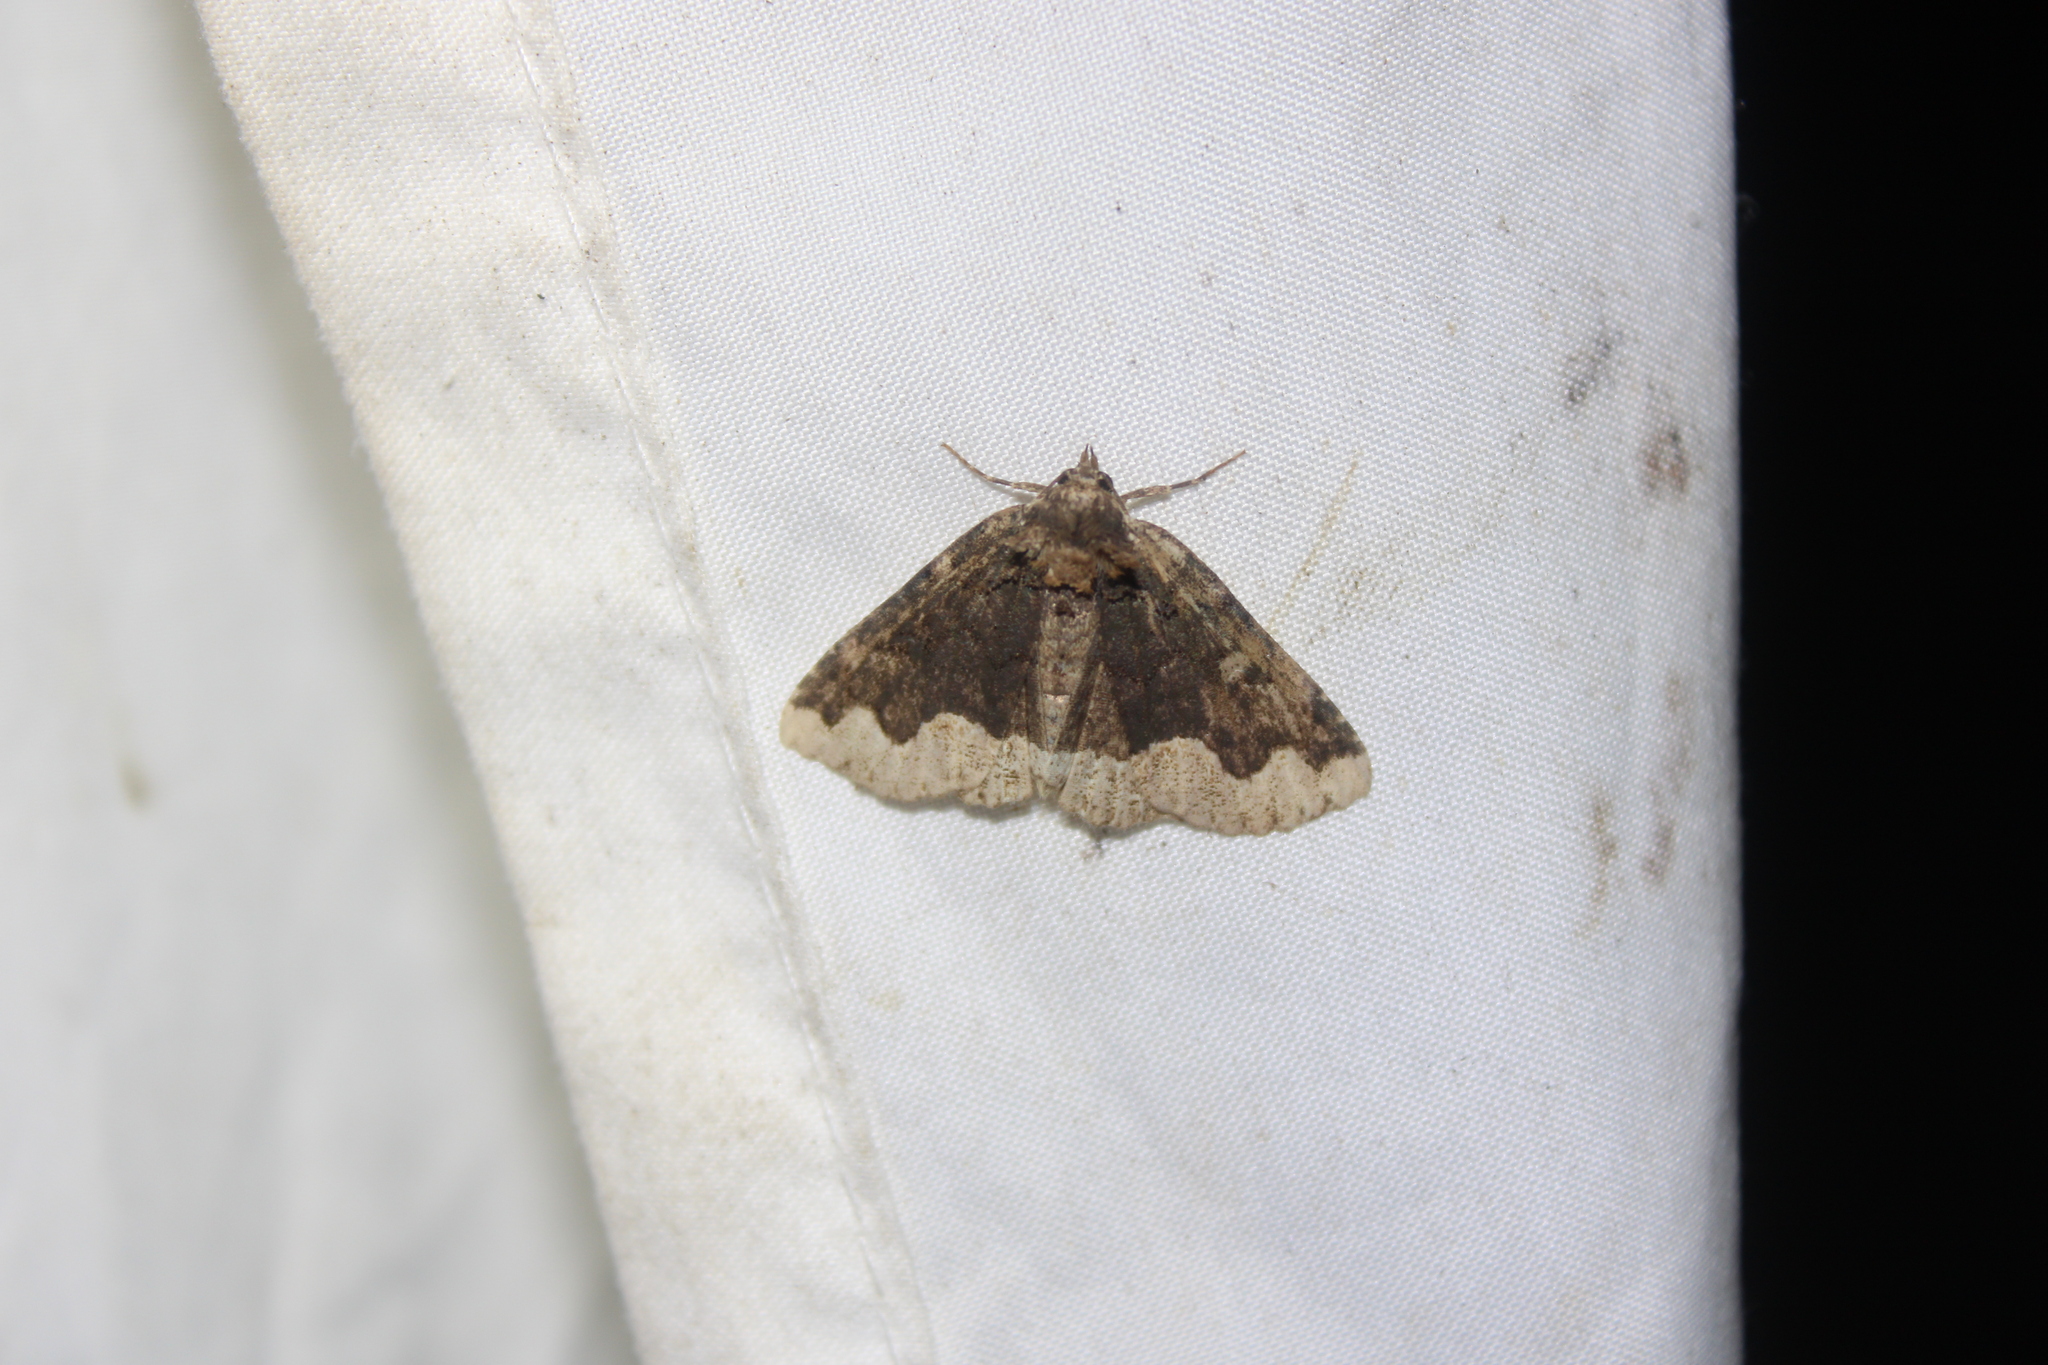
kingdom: Animalia
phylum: Arthropoda
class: Insecta
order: Lepidoptera
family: Erebidae
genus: Zale
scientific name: Zale horrida
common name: Horrid zale moth
